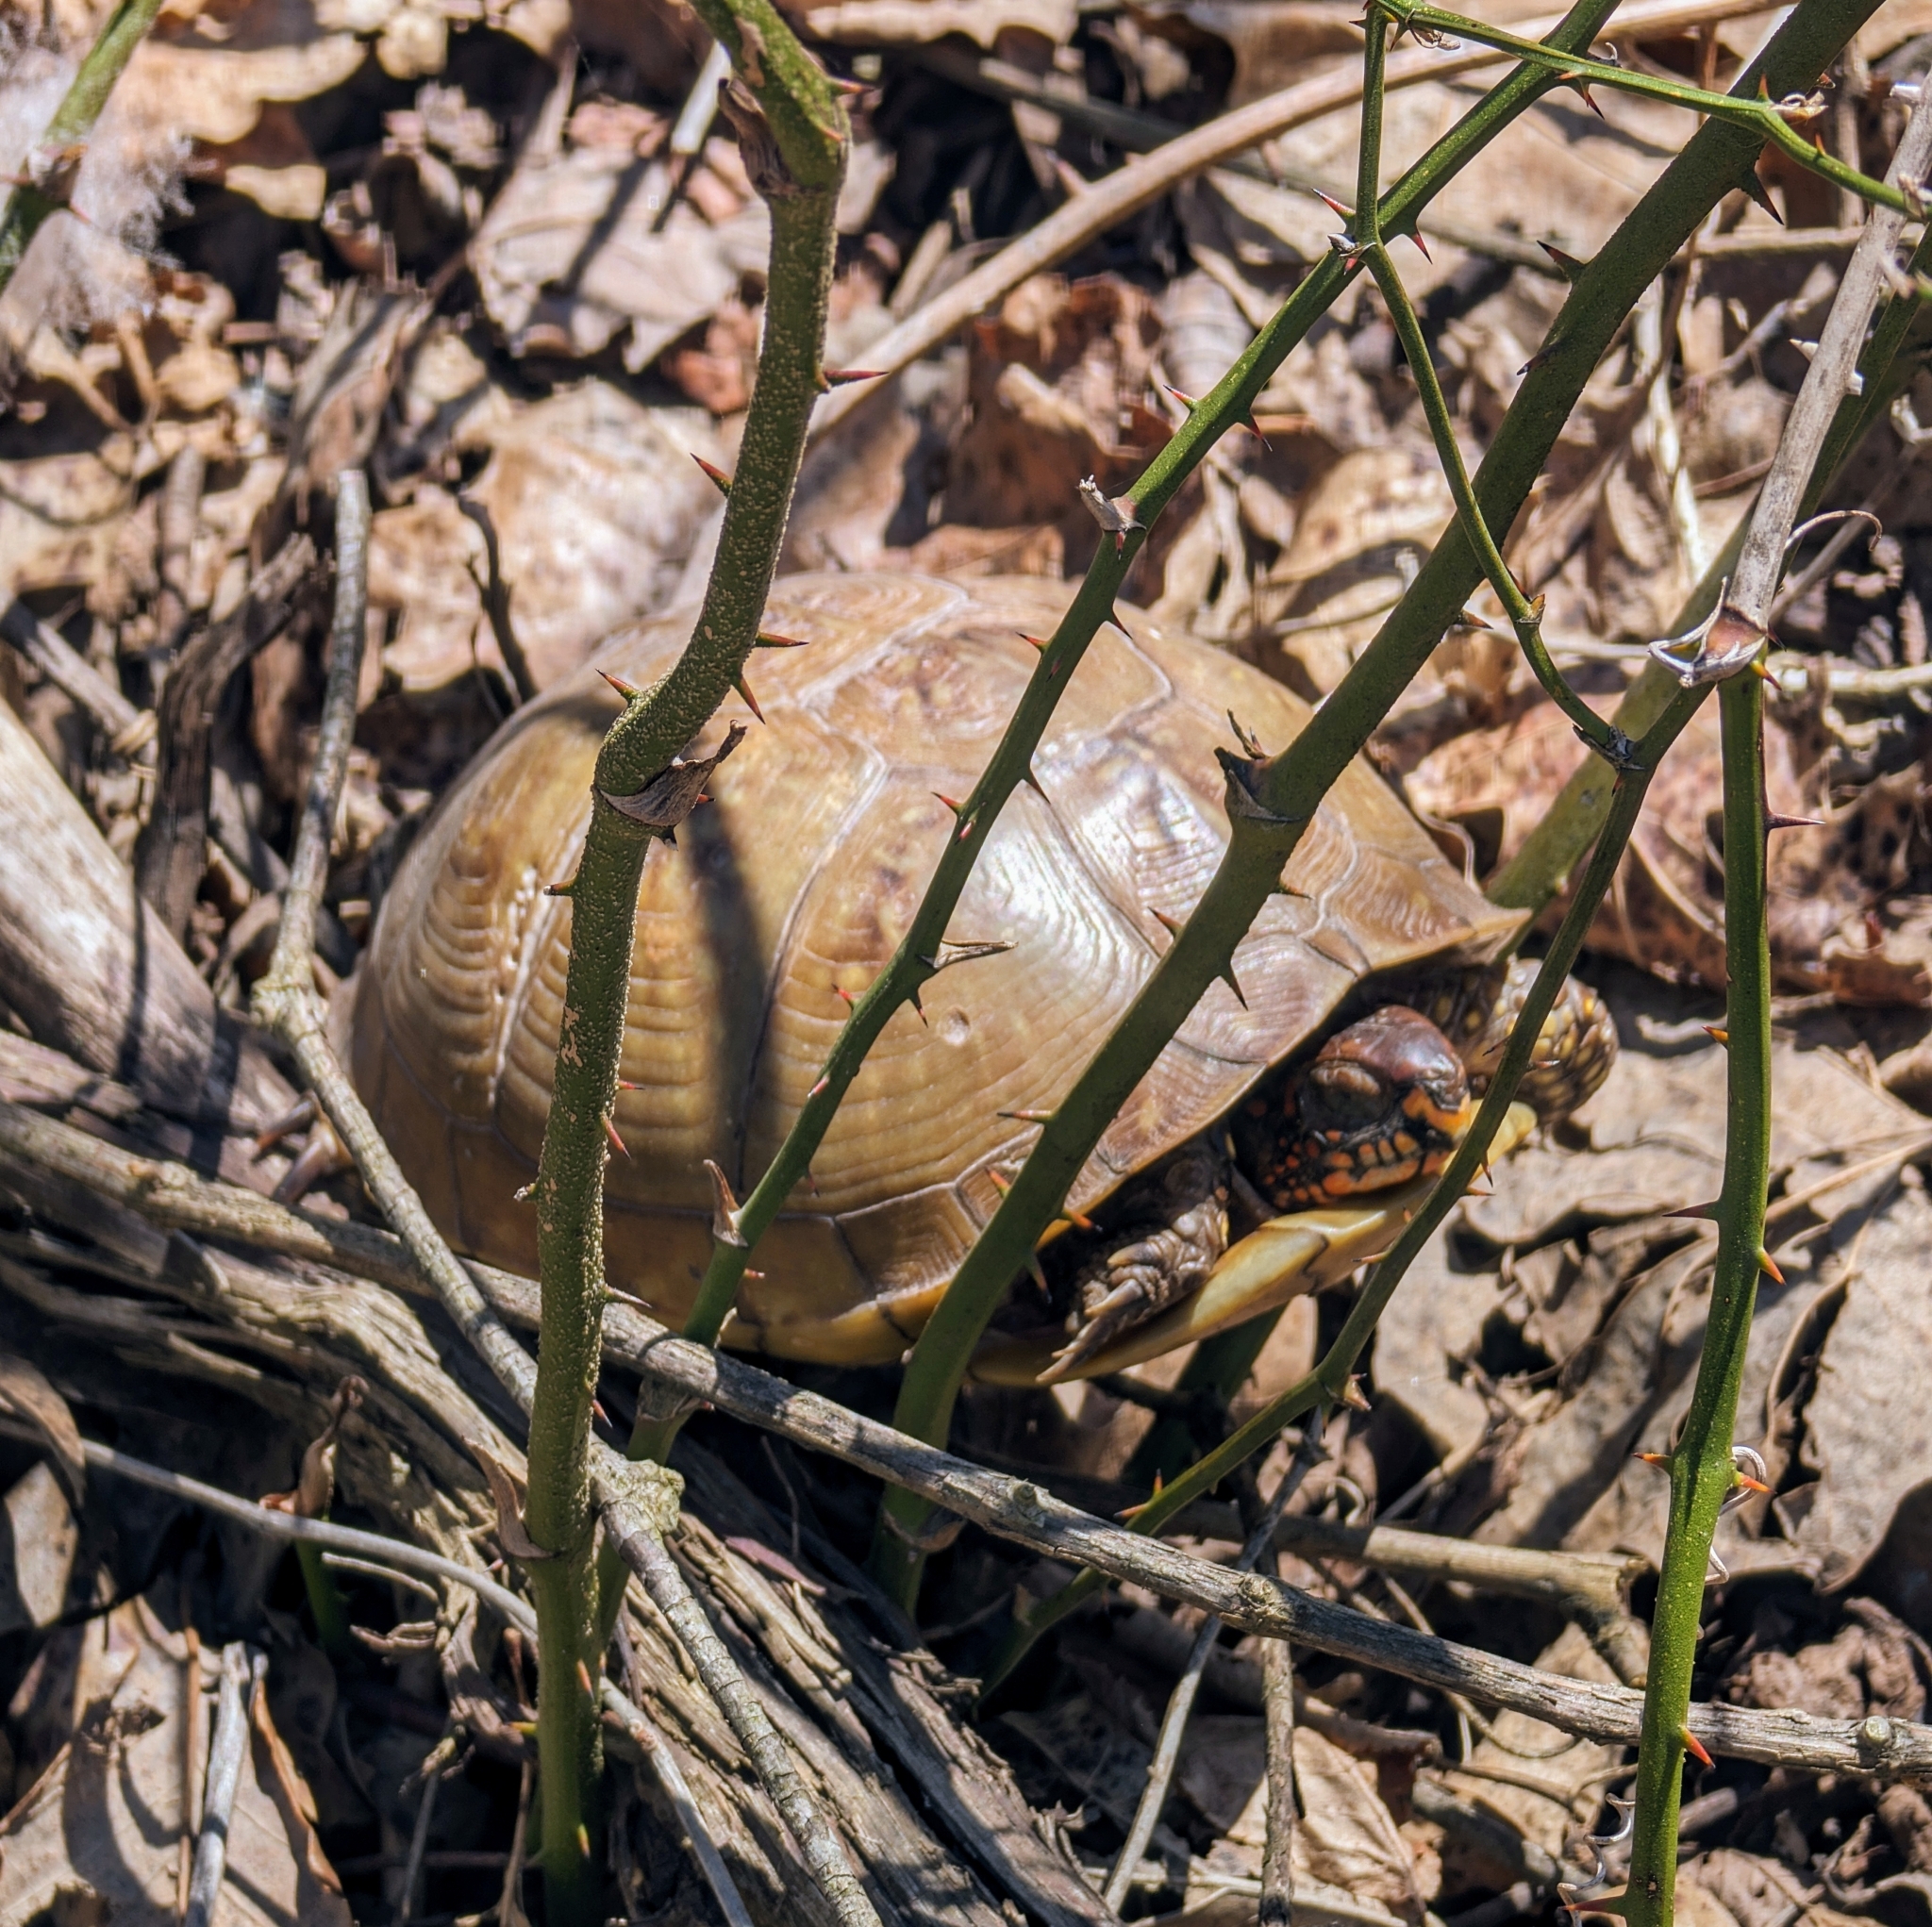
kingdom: Animalia
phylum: Chordata
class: Testudines
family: Emydidae
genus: Terrapene
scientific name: Terrapene carolina
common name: Common box turtle
